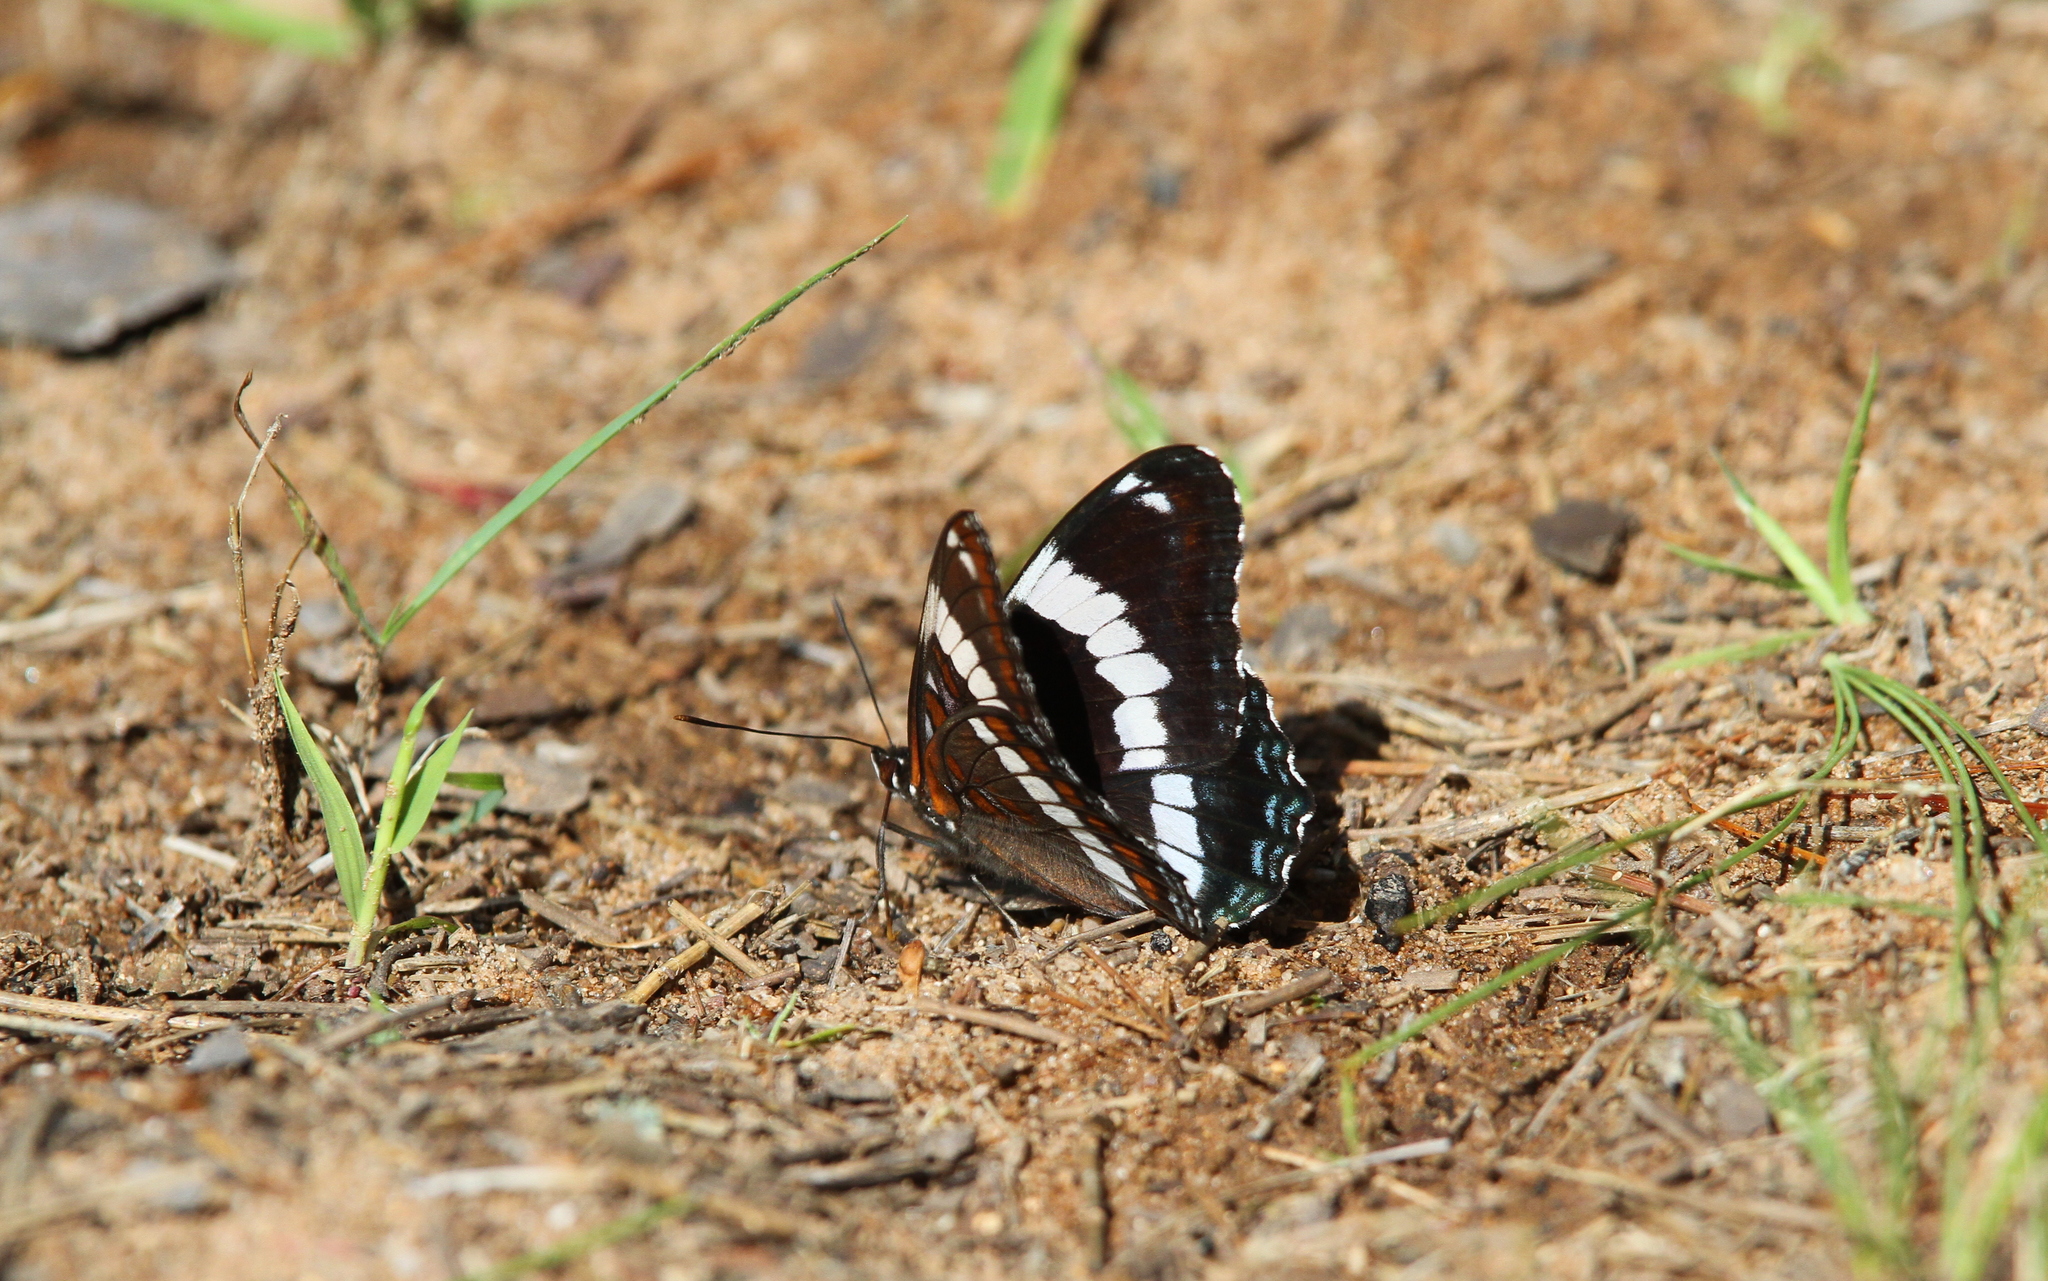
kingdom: Animalia
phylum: Arthropoda
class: Insecta
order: Lepidoptera
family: Nymphalidae
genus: Limenitis
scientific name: Limenitis arthemis
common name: Red-spotted admiral
